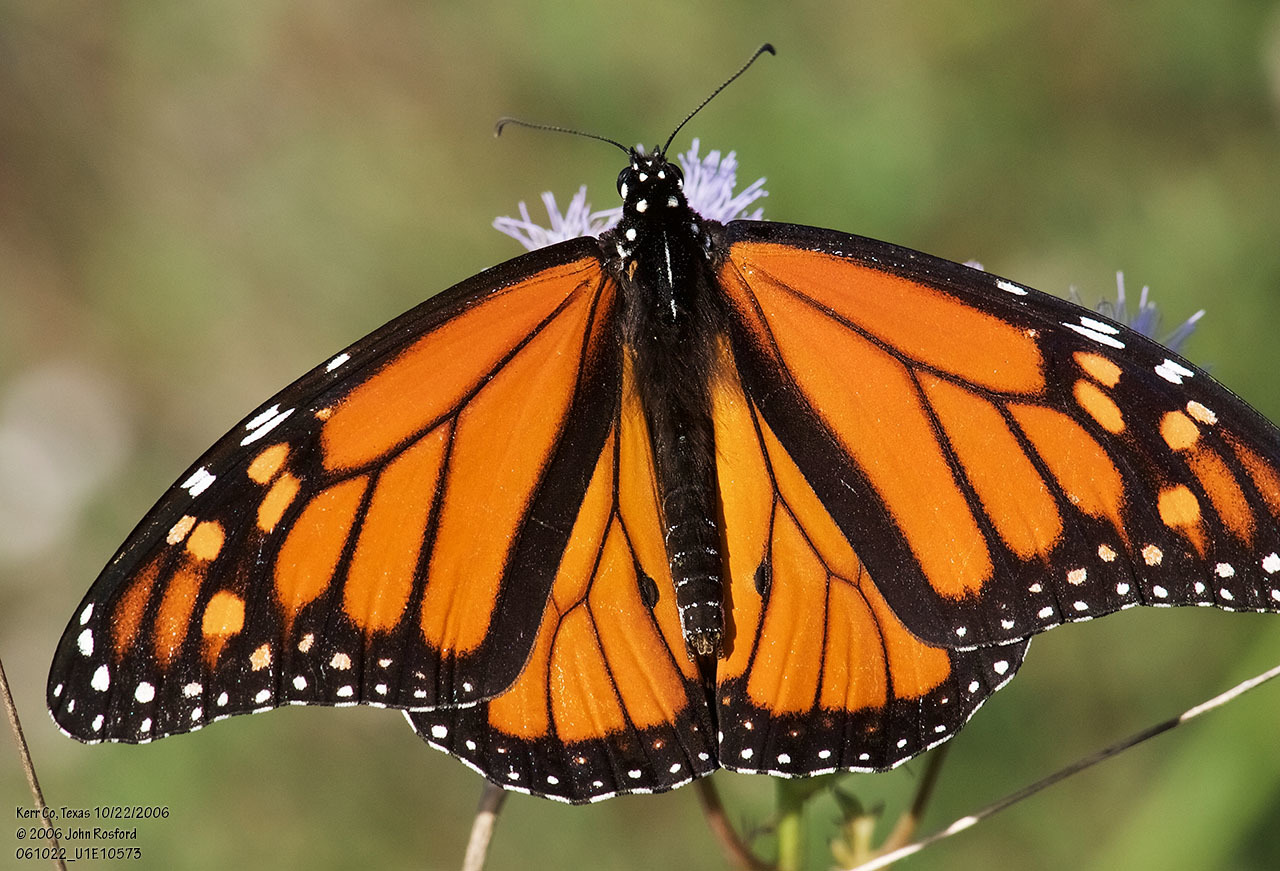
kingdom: Animalia
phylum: Arthropoda
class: Insecta
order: Lepidoptera
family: Nymphalidae
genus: Danaus
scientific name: Danaus plexippus
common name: Monarch
